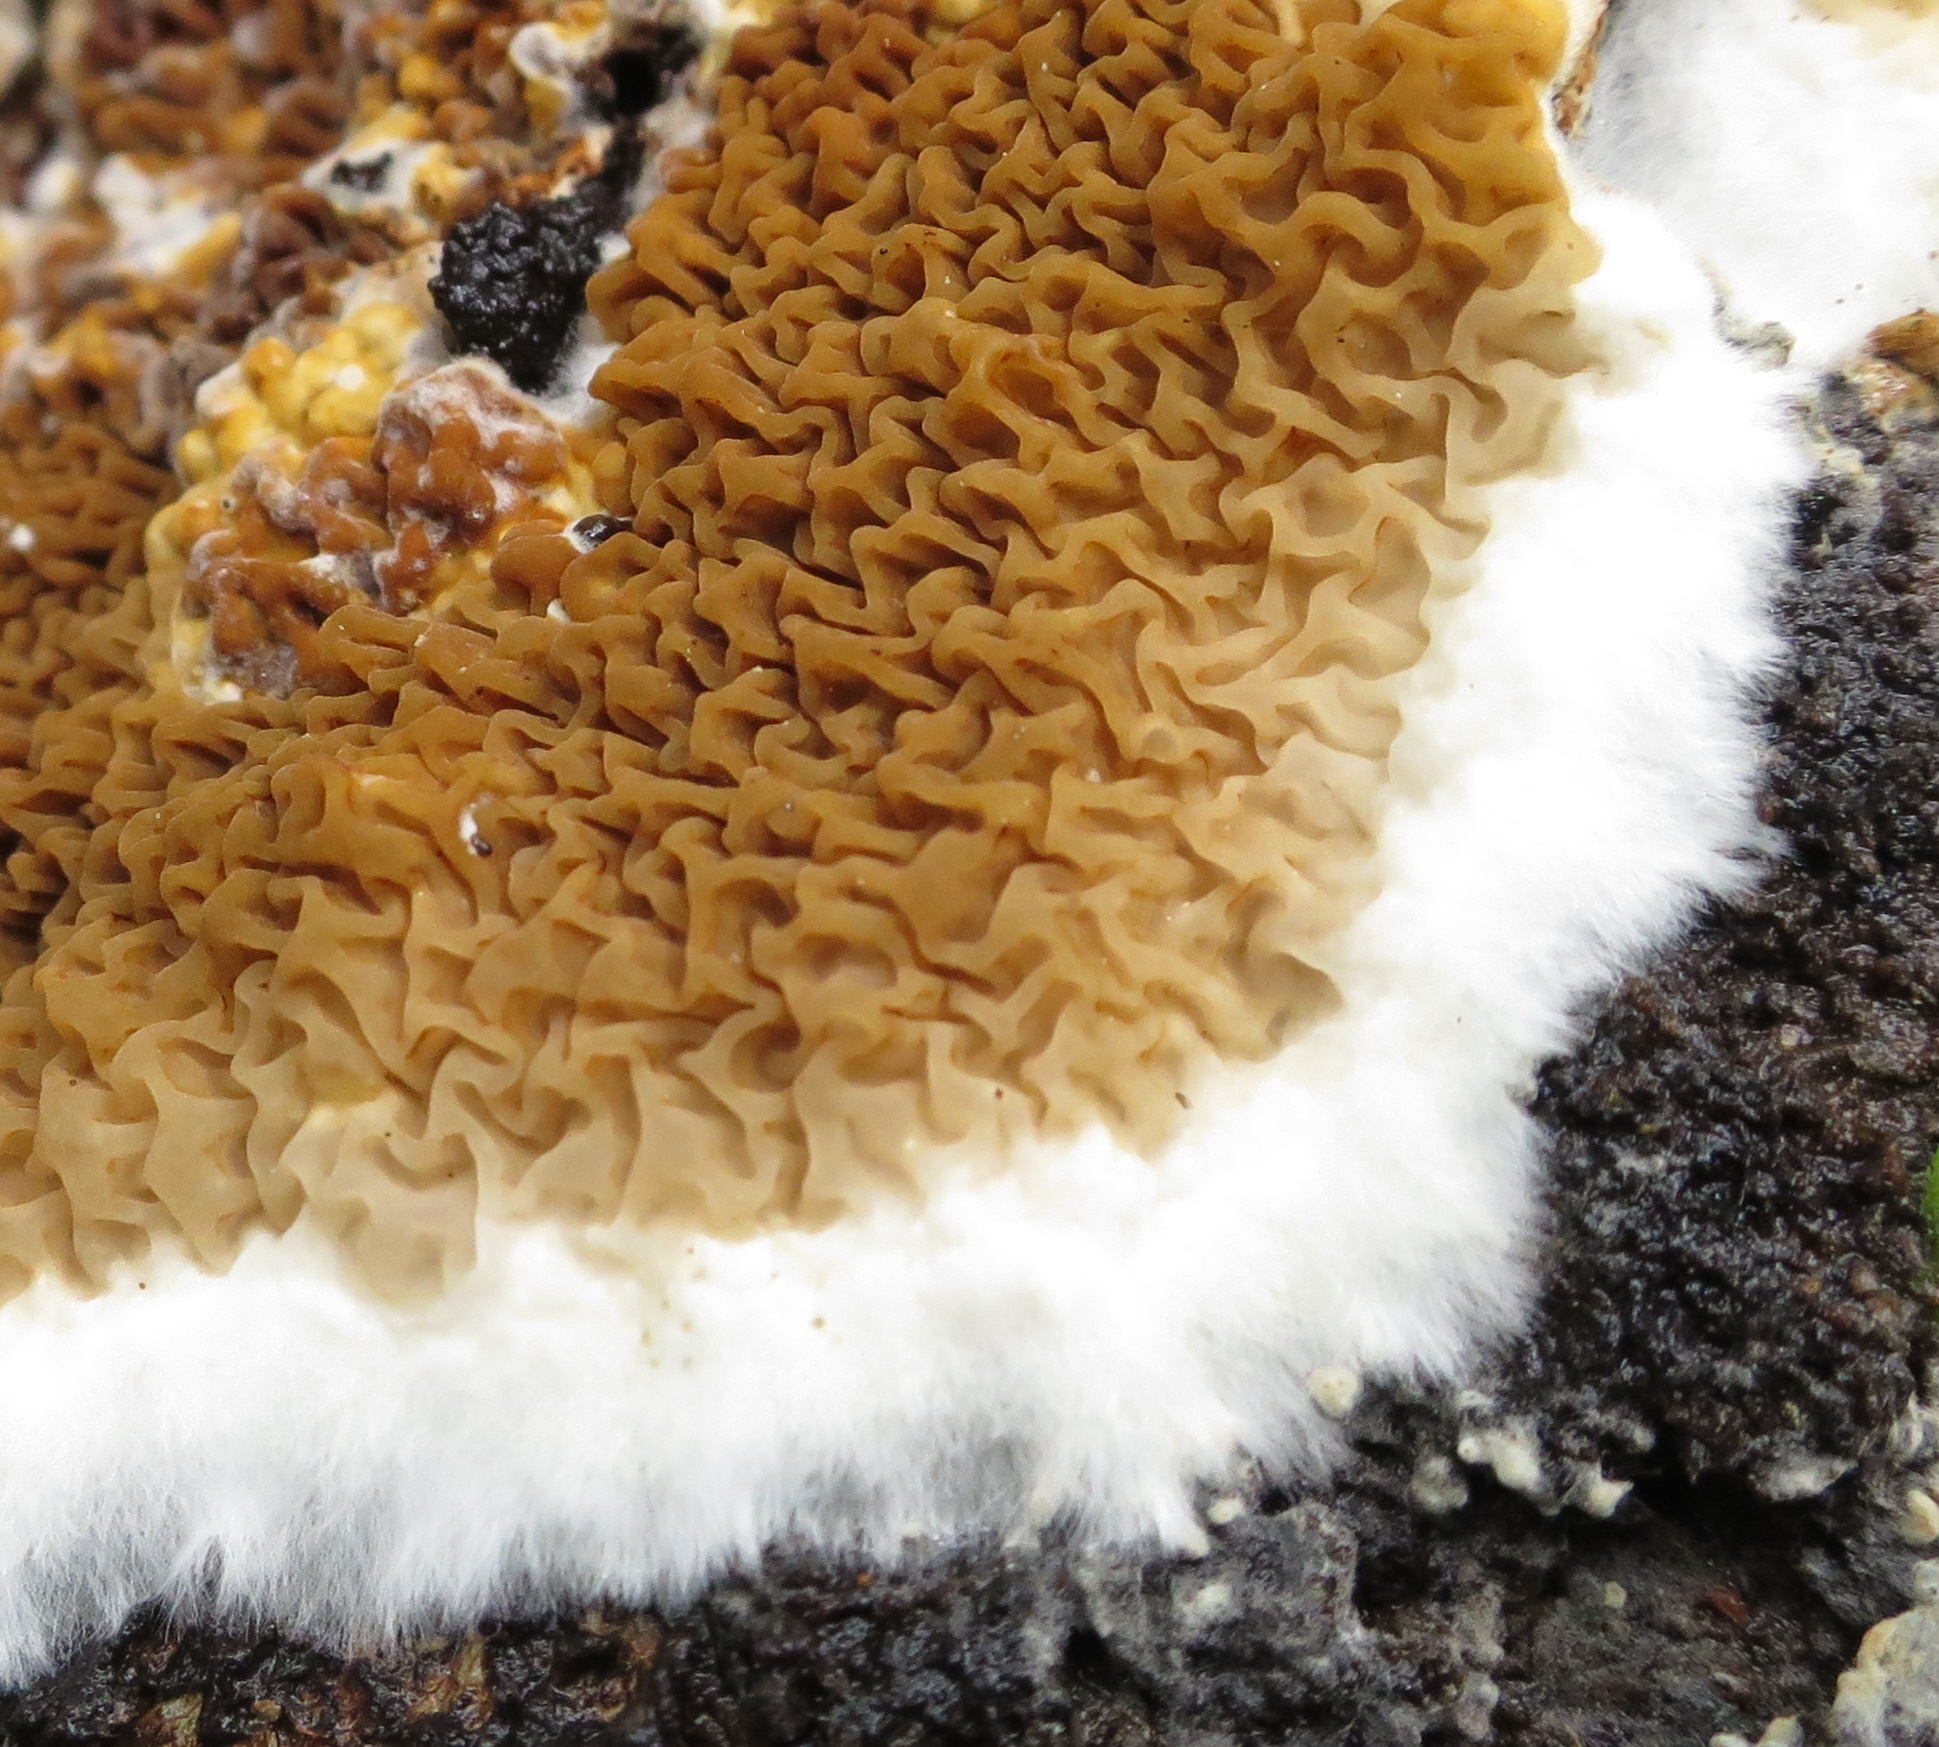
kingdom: Fungi
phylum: Basidiomycota
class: Agaricomycetes
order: Boletales
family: Serpulaceae
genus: Serpula
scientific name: Serpula himantioides
